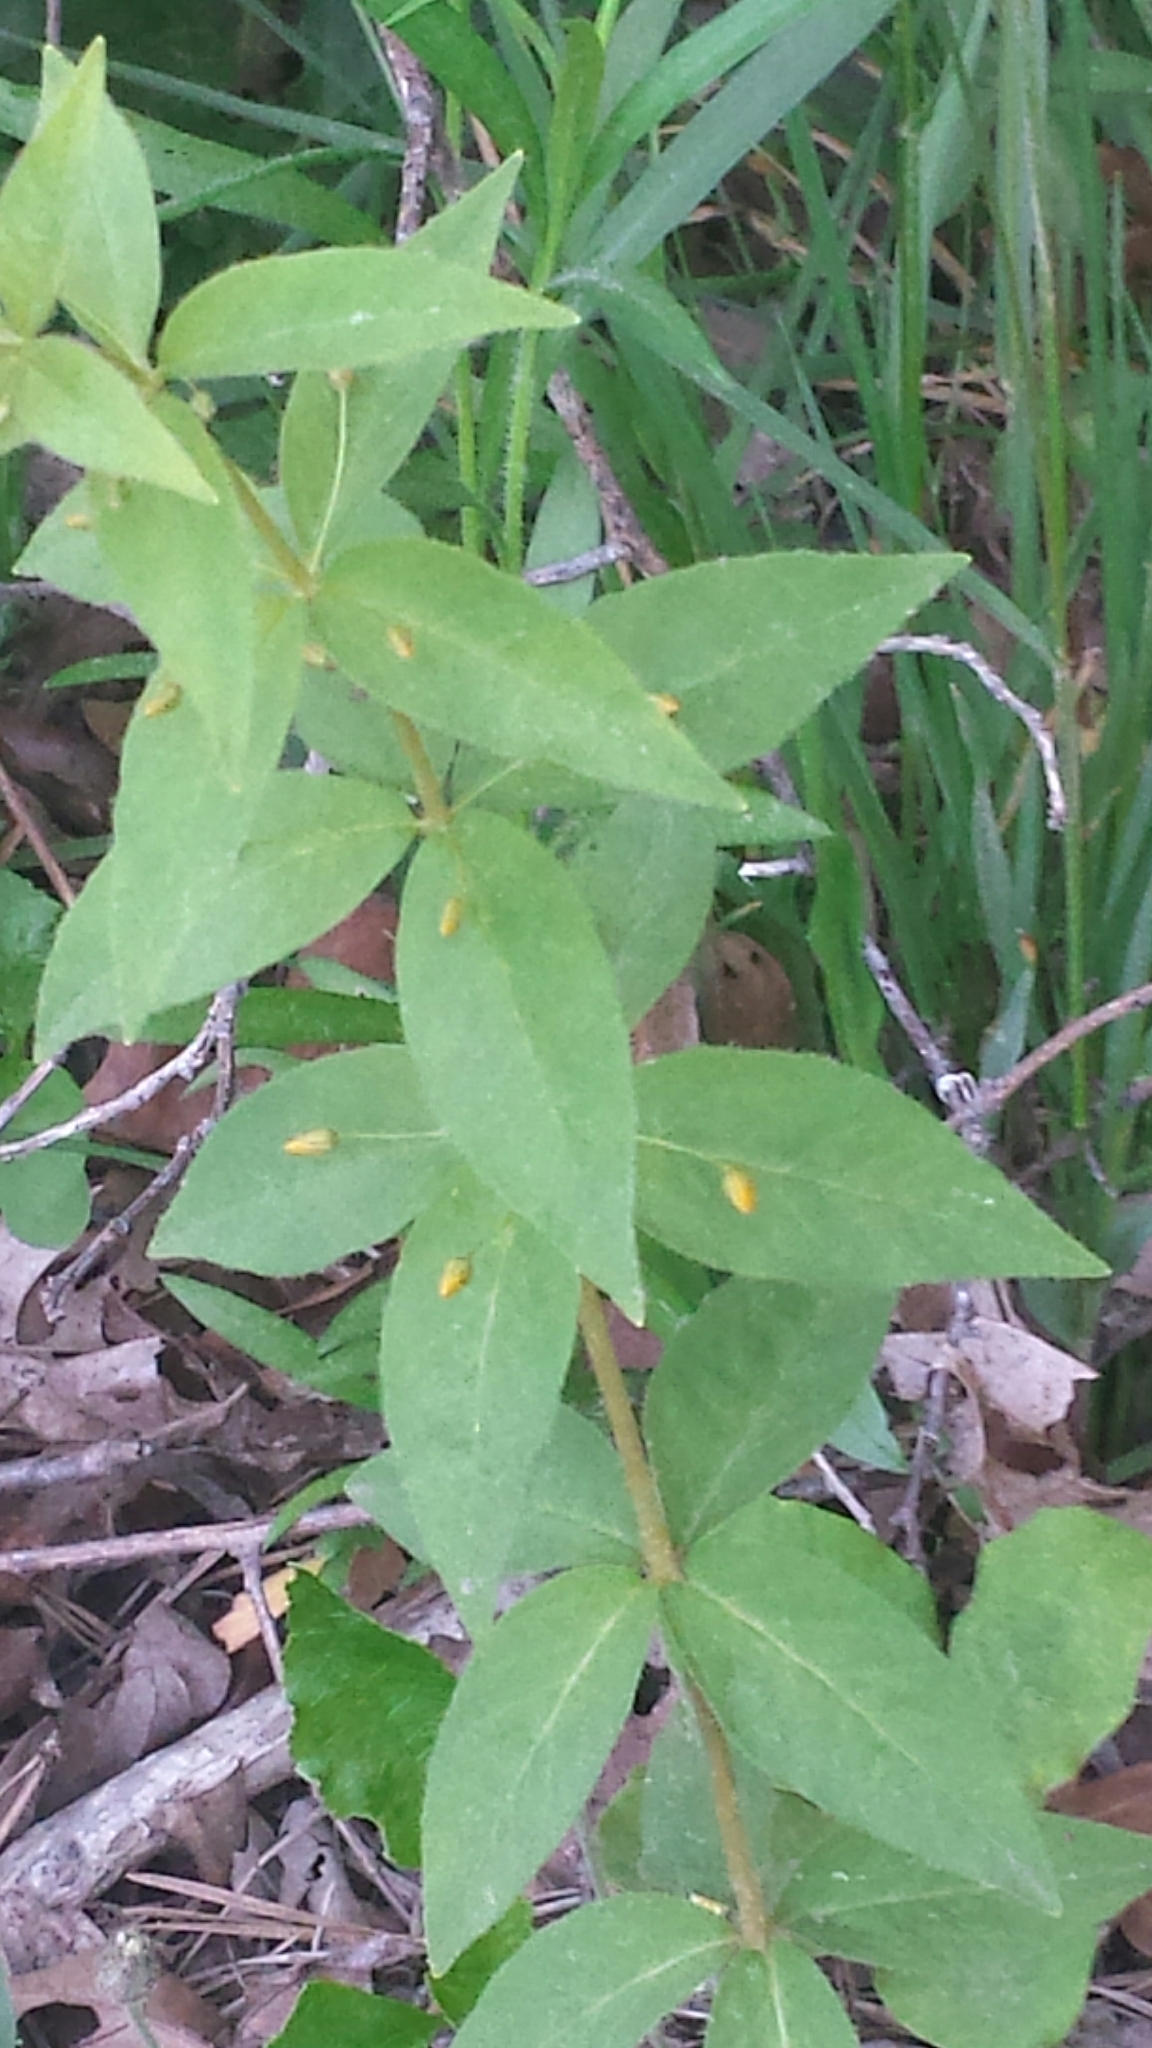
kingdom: Plantae
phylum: Tracheophyta
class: Magnoliopsida
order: Ericales
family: Primulaceae
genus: Lysimachia
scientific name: Lysimachia quadrifolia
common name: Whorled loosestrife
